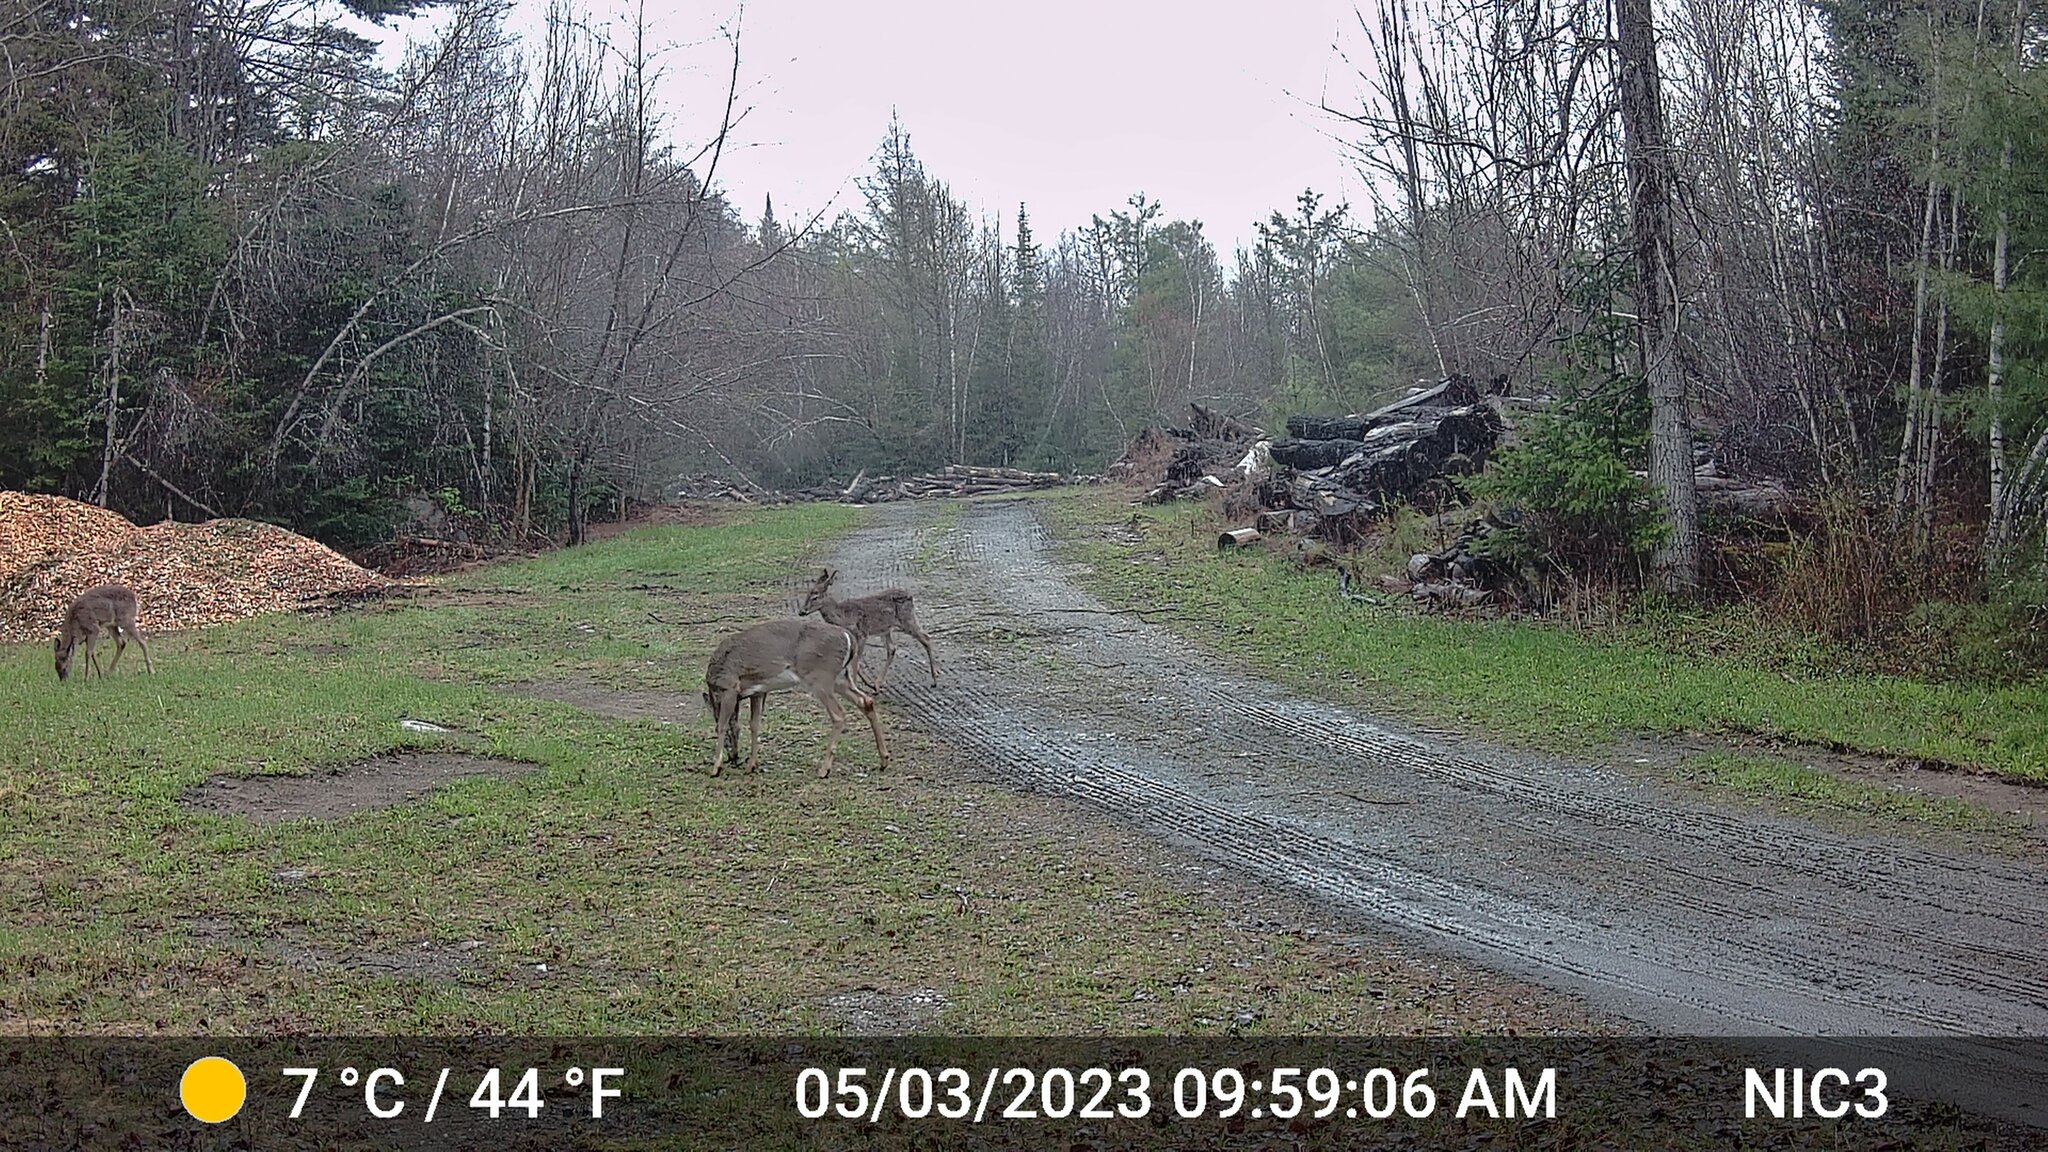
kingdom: Animalia
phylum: Chordata
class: Mammalia
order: Artiodactyla
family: Cervidae
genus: Odocoileus
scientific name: Odocoileus virginianus
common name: White-tailed deer
